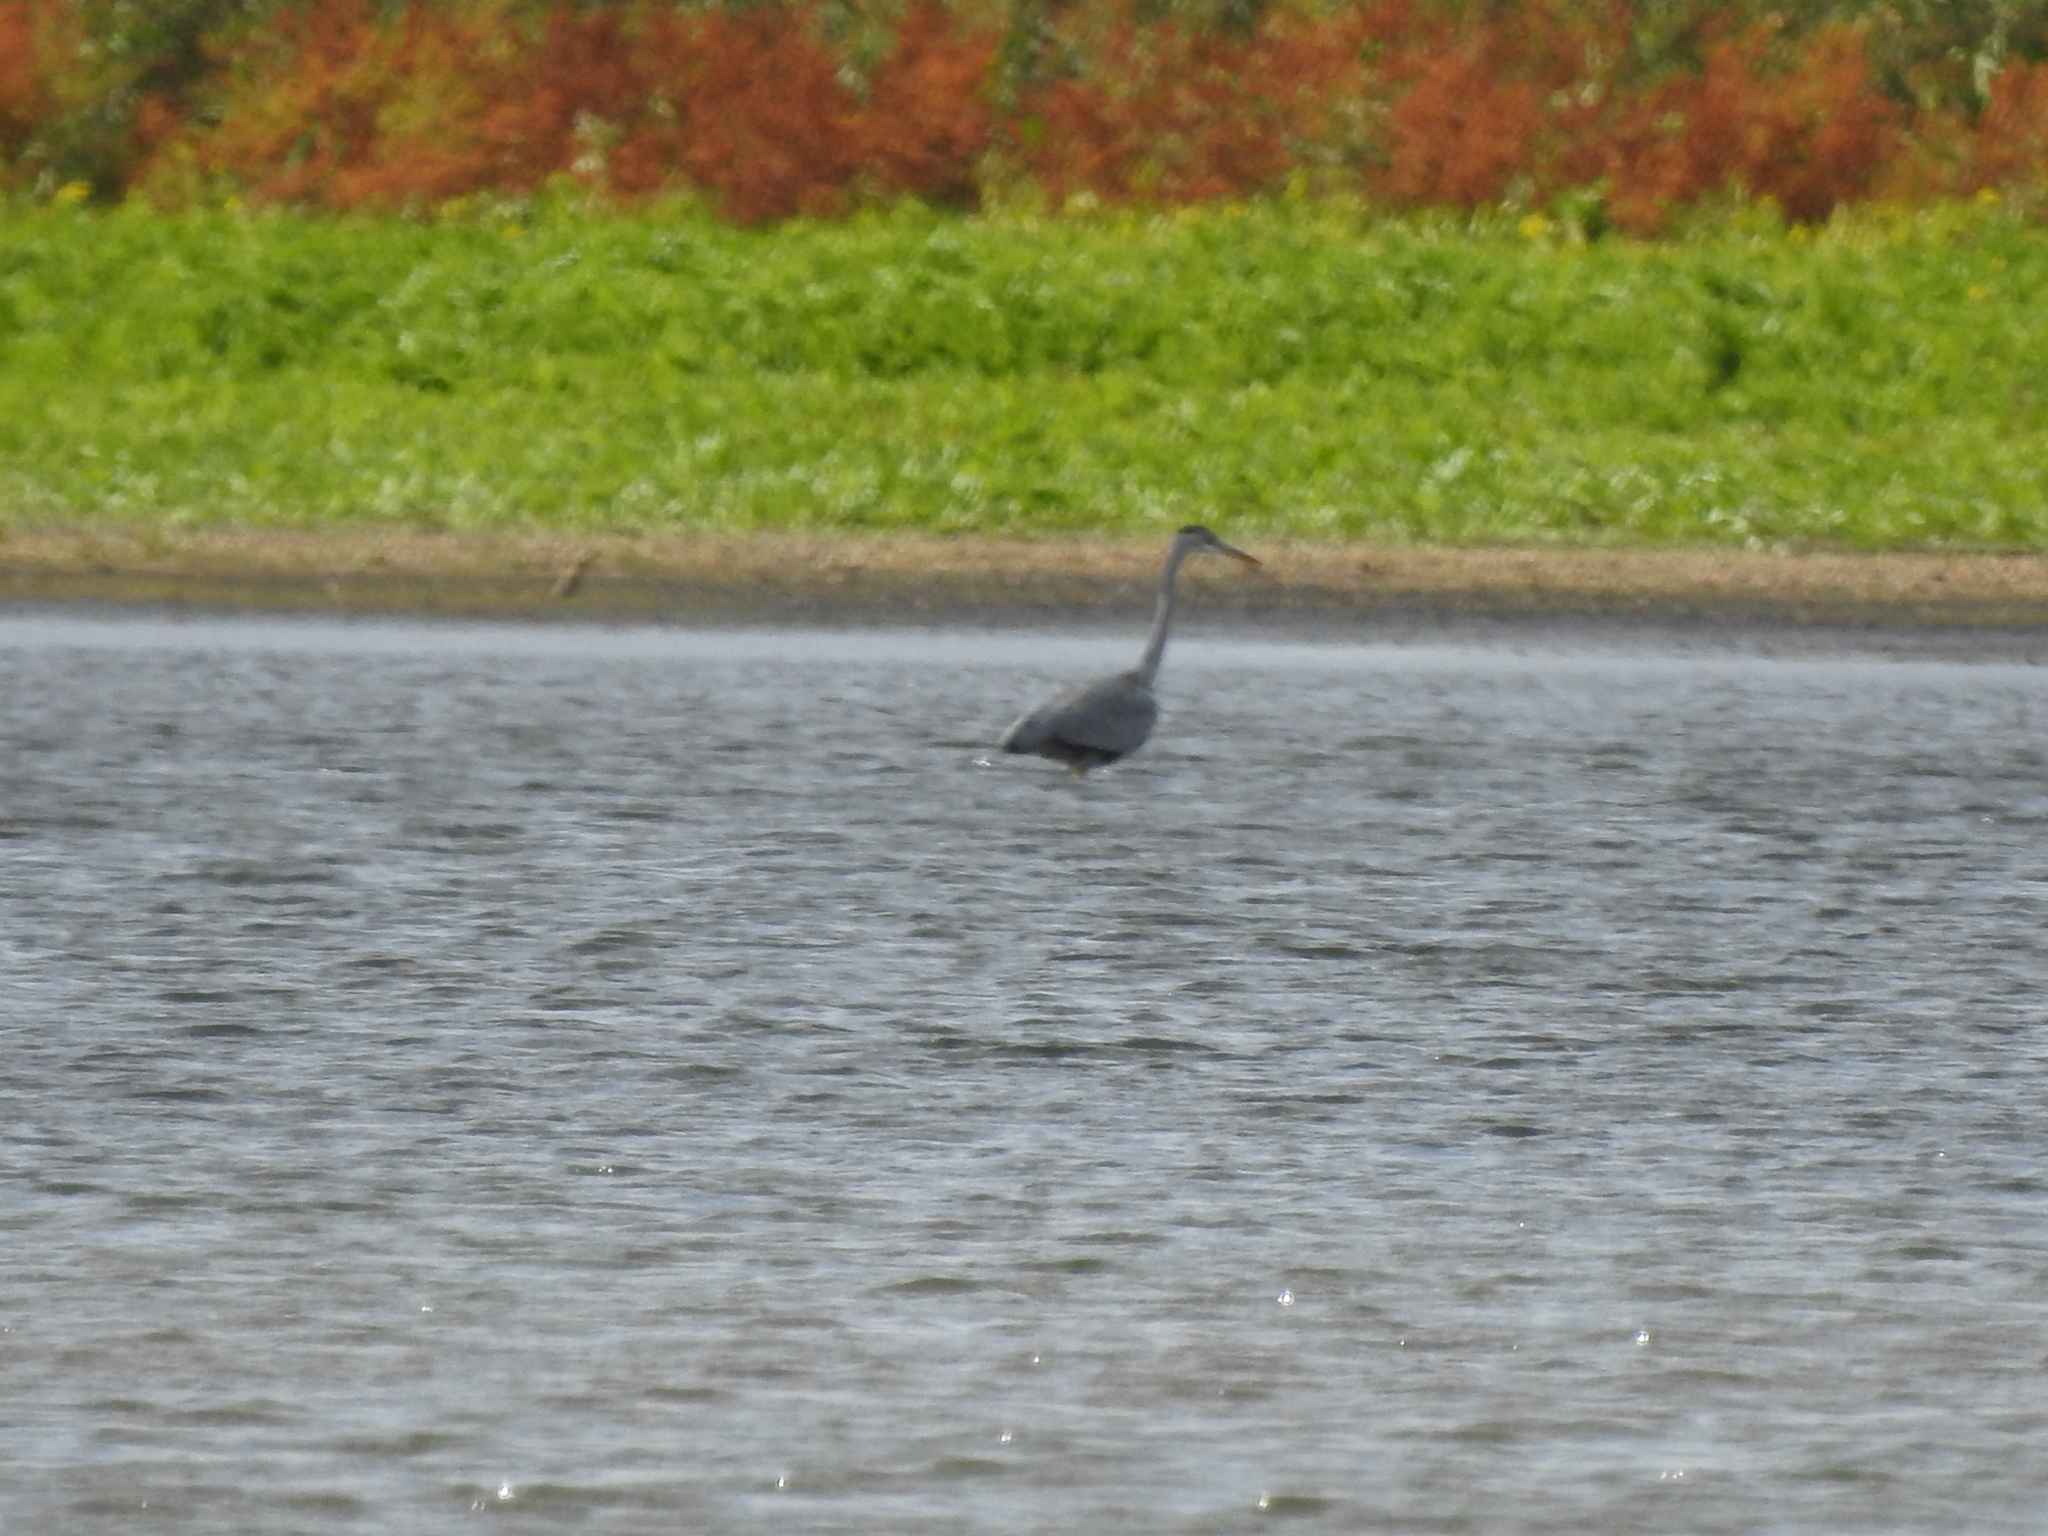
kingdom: Animalia
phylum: Chordata
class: Aves
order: Pelecaniformes
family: Ardeidae
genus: Ardea
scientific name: Ardea cinerea
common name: Grey heron
